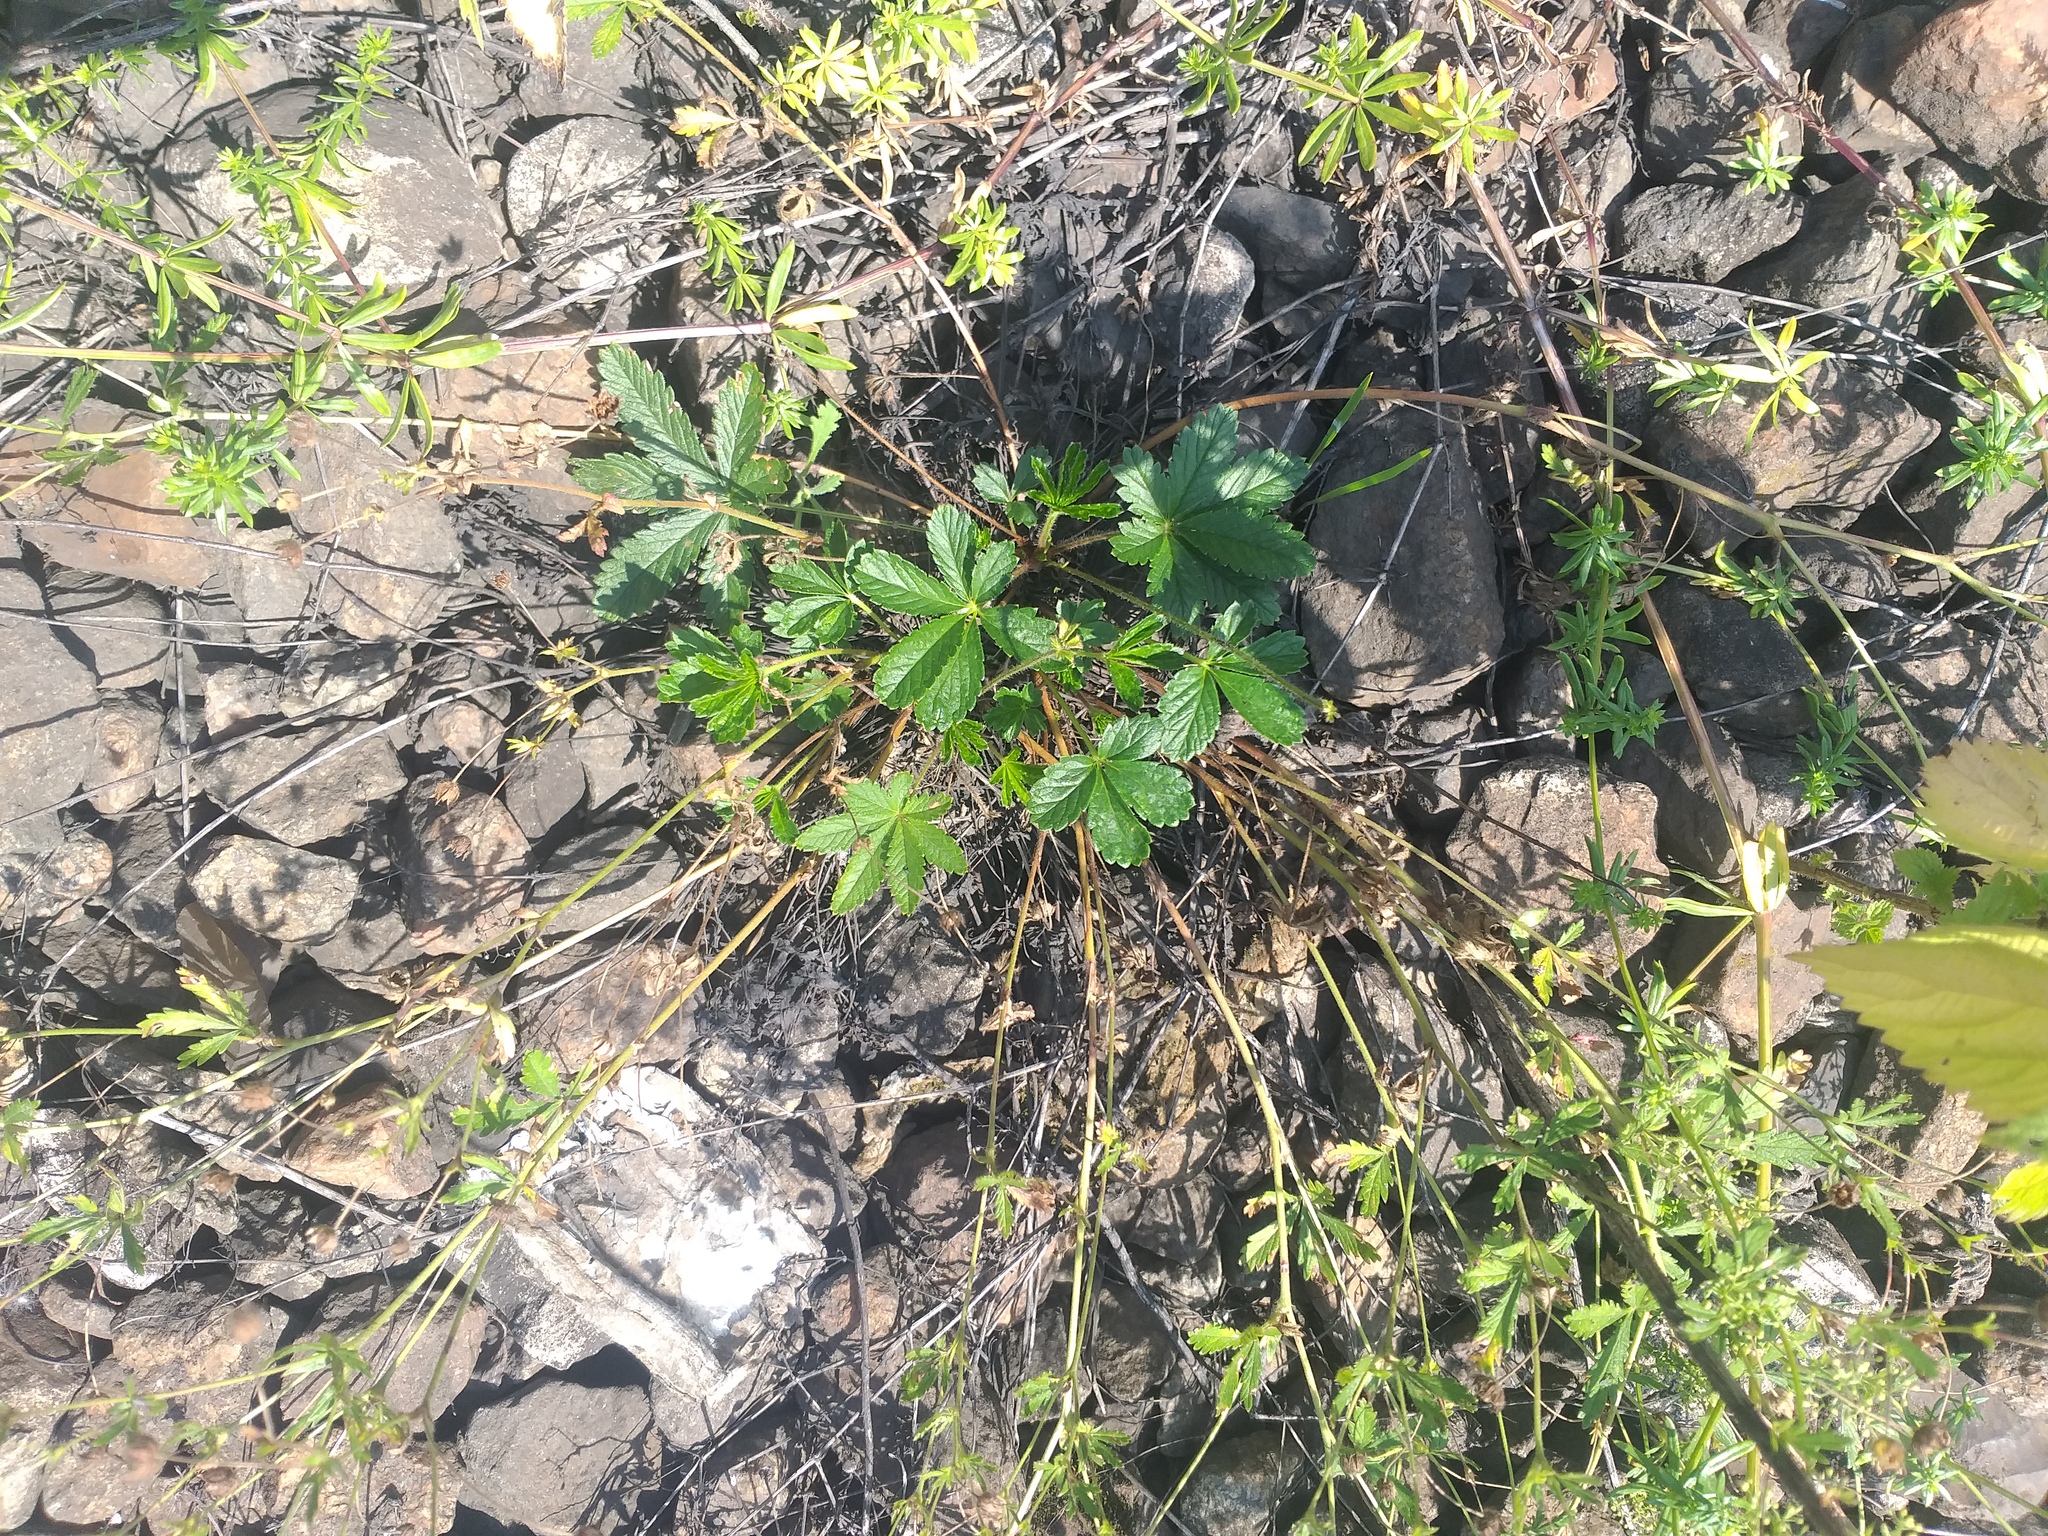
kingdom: Plantae
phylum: Tracheophyta
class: Magnoliopsida
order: Rosales
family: Rosaceae
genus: Potentilla
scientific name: Potentilla thuringiaca
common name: European cinquefoil
